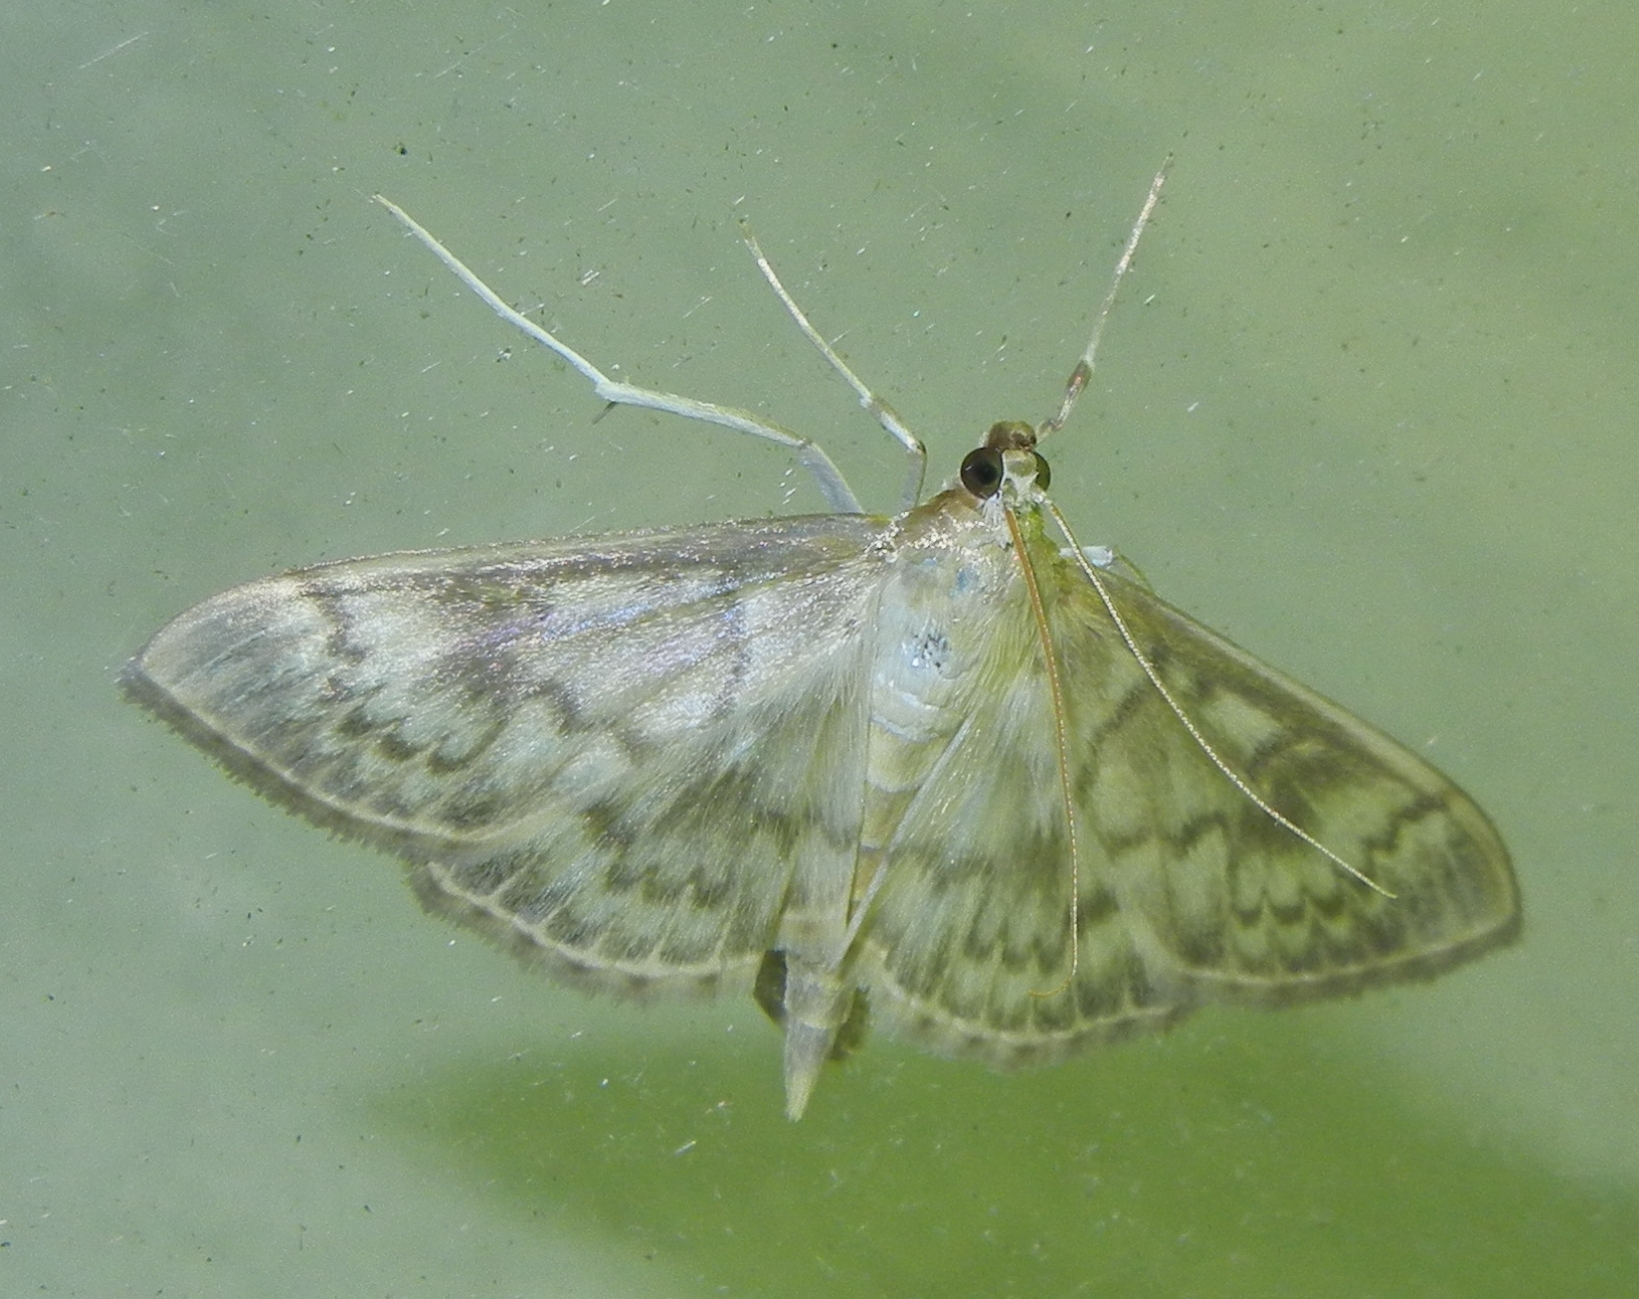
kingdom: Animalia
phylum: Arthropoda
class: Insecta
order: Lepidoptera
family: Crambidae
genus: Patania
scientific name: Patania ruralis
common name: Mother of pearl
